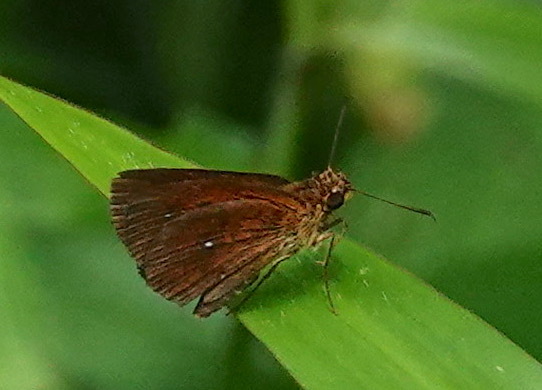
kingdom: Animalia
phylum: Arthropoda
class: Insecta
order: Lepidoptera
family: Hesperiidae
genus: Iambrix
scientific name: Iambrix salsala
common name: Chestnut bob
